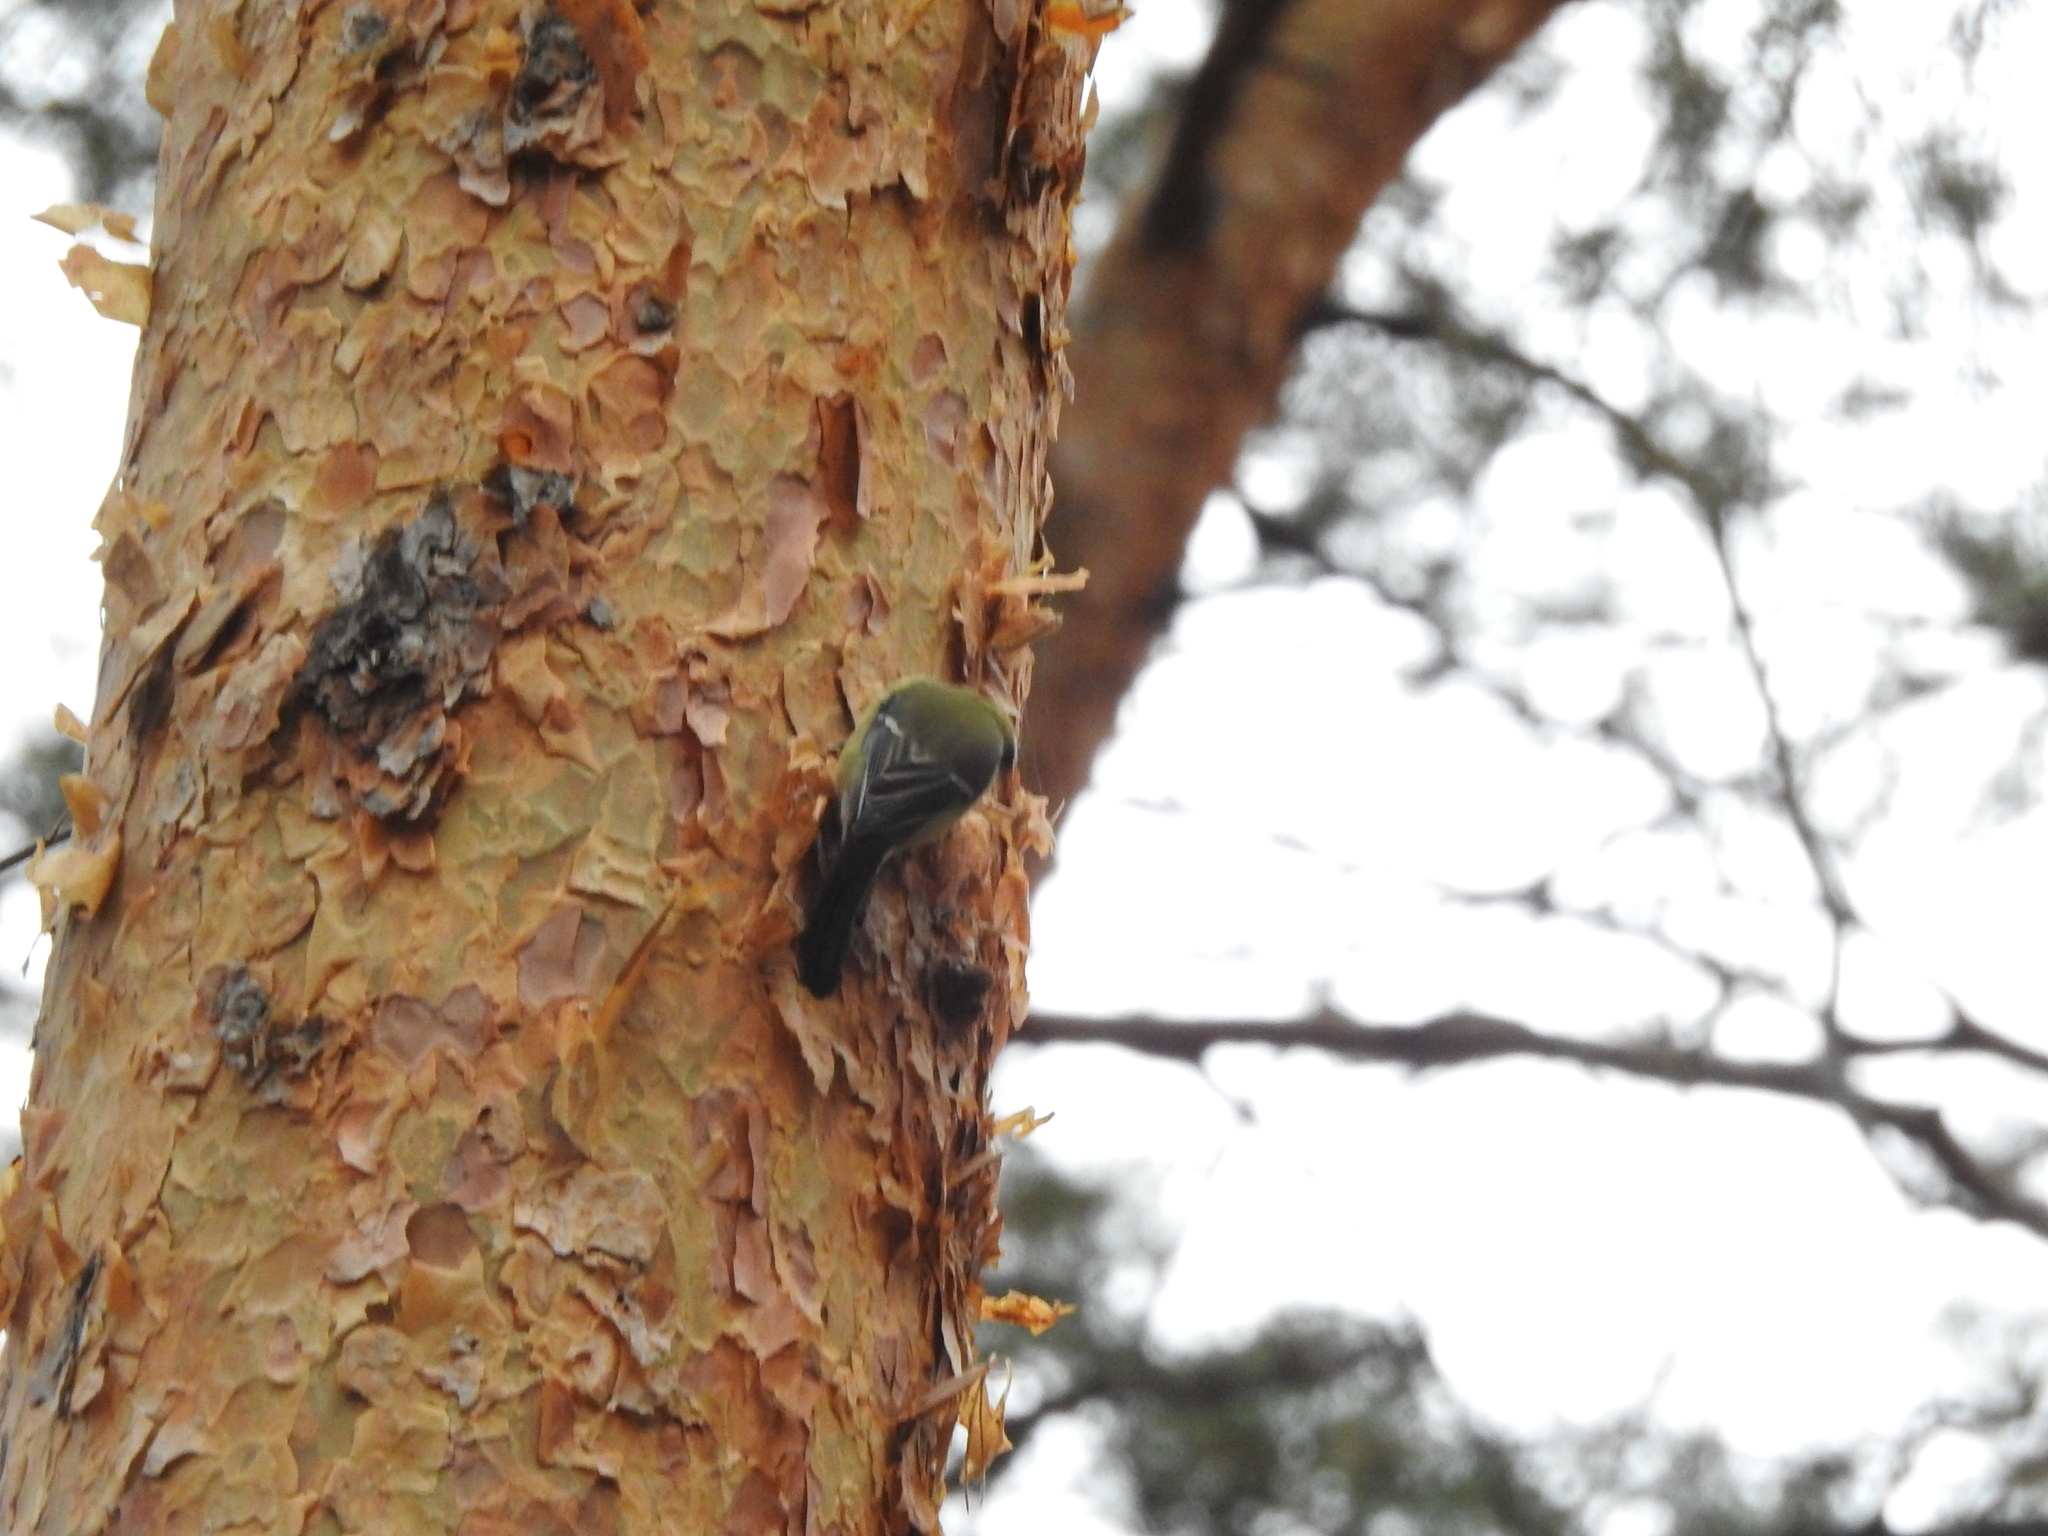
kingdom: Animalia
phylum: Chordata
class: Aves
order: Passeriformes
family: Paridae
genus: Parus
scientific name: Parus major
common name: Great tit
